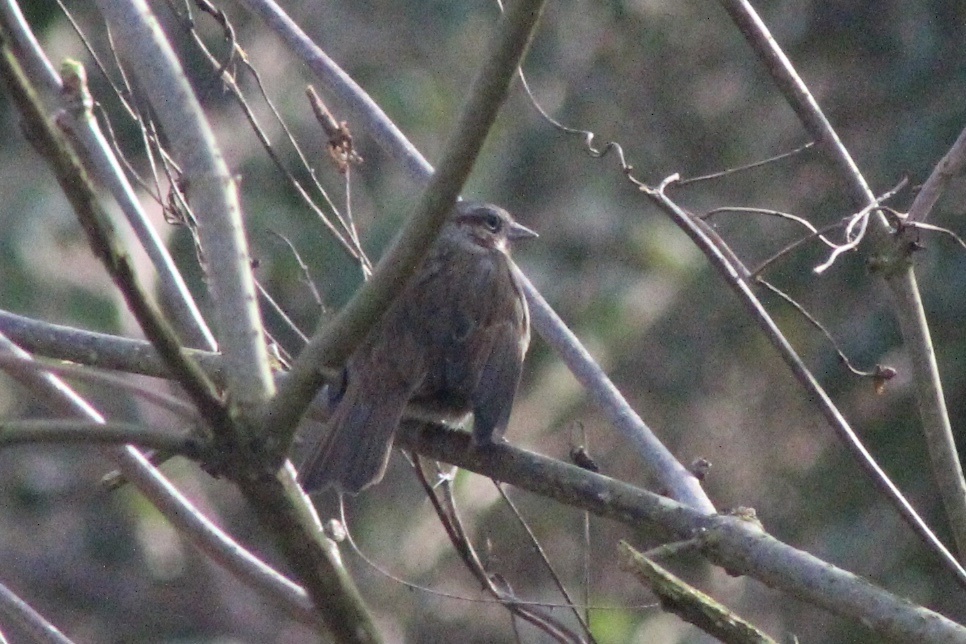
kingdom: Animalia
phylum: Chordata
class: Aves
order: Passeriformes
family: Passerellidae
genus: Melospiza
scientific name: Melospiza melodia
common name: Song sparrow
